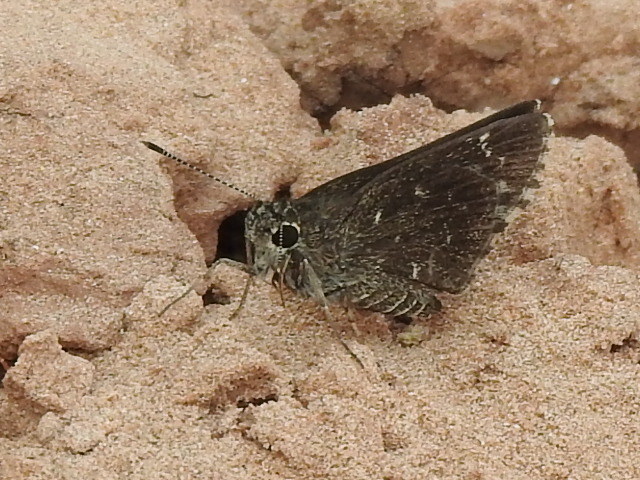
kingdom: Animalia
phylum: Arthropoda
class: Insecta
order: Lepidoptera
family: Hesperiidae
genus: Mastor
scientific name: Mastor celia
